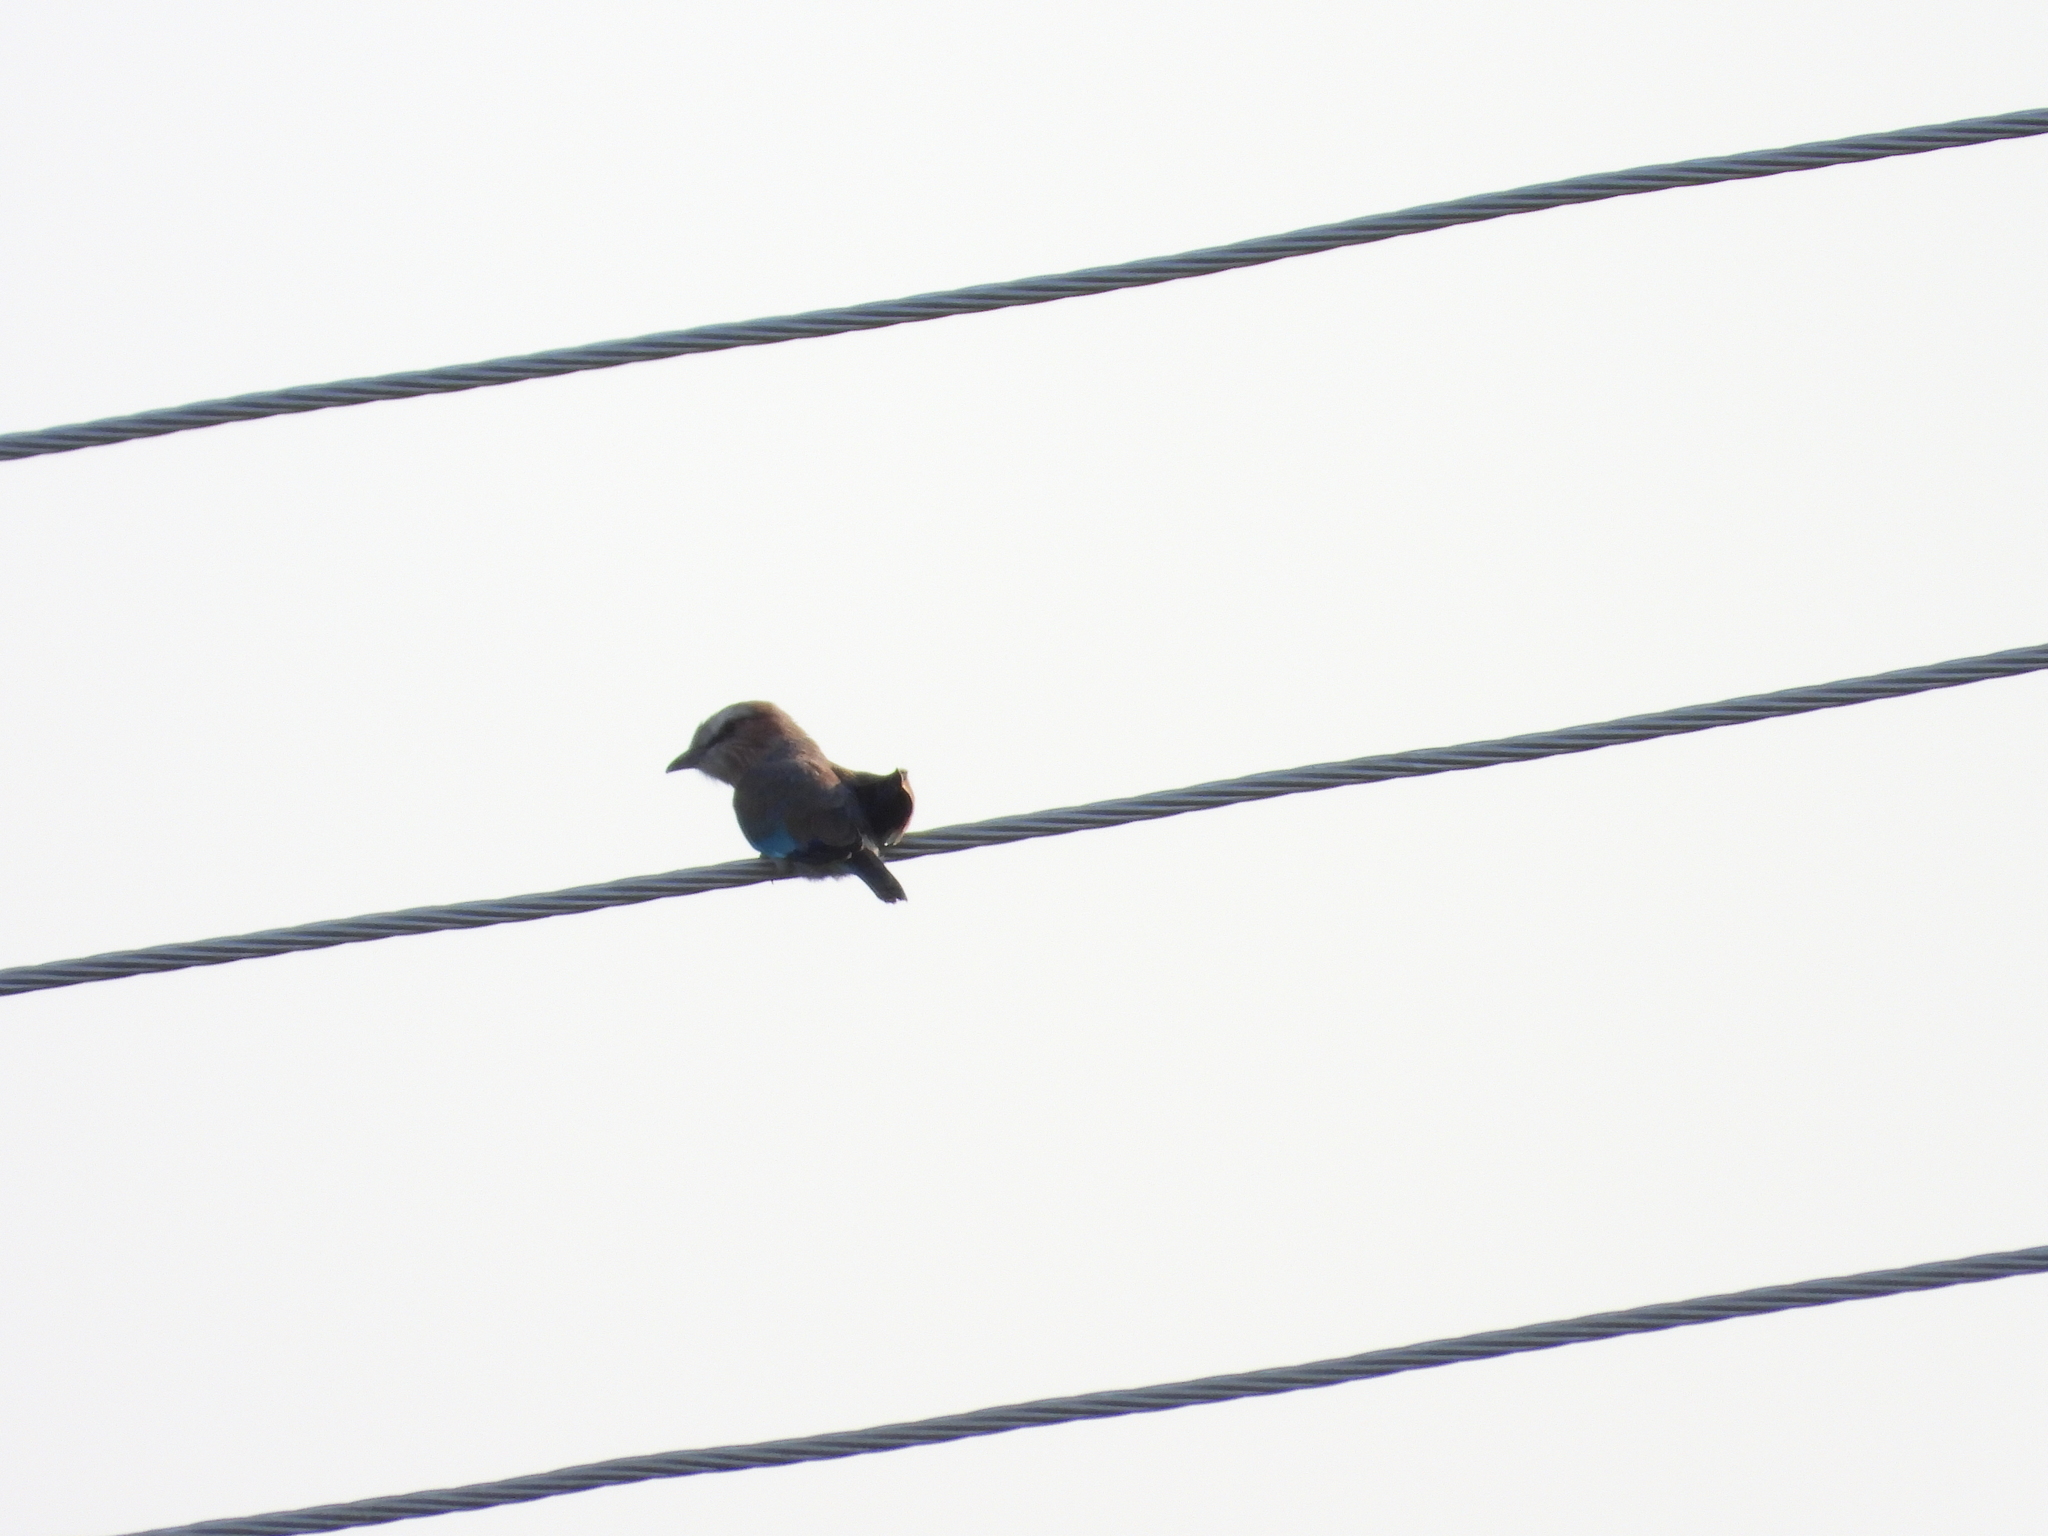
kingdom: Animalia
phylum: Chordata
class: Aves
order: Coraciiformes
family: Coraciidae
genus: Coracias
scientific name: Coracias caudatus
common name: Lilac-breasted roller
